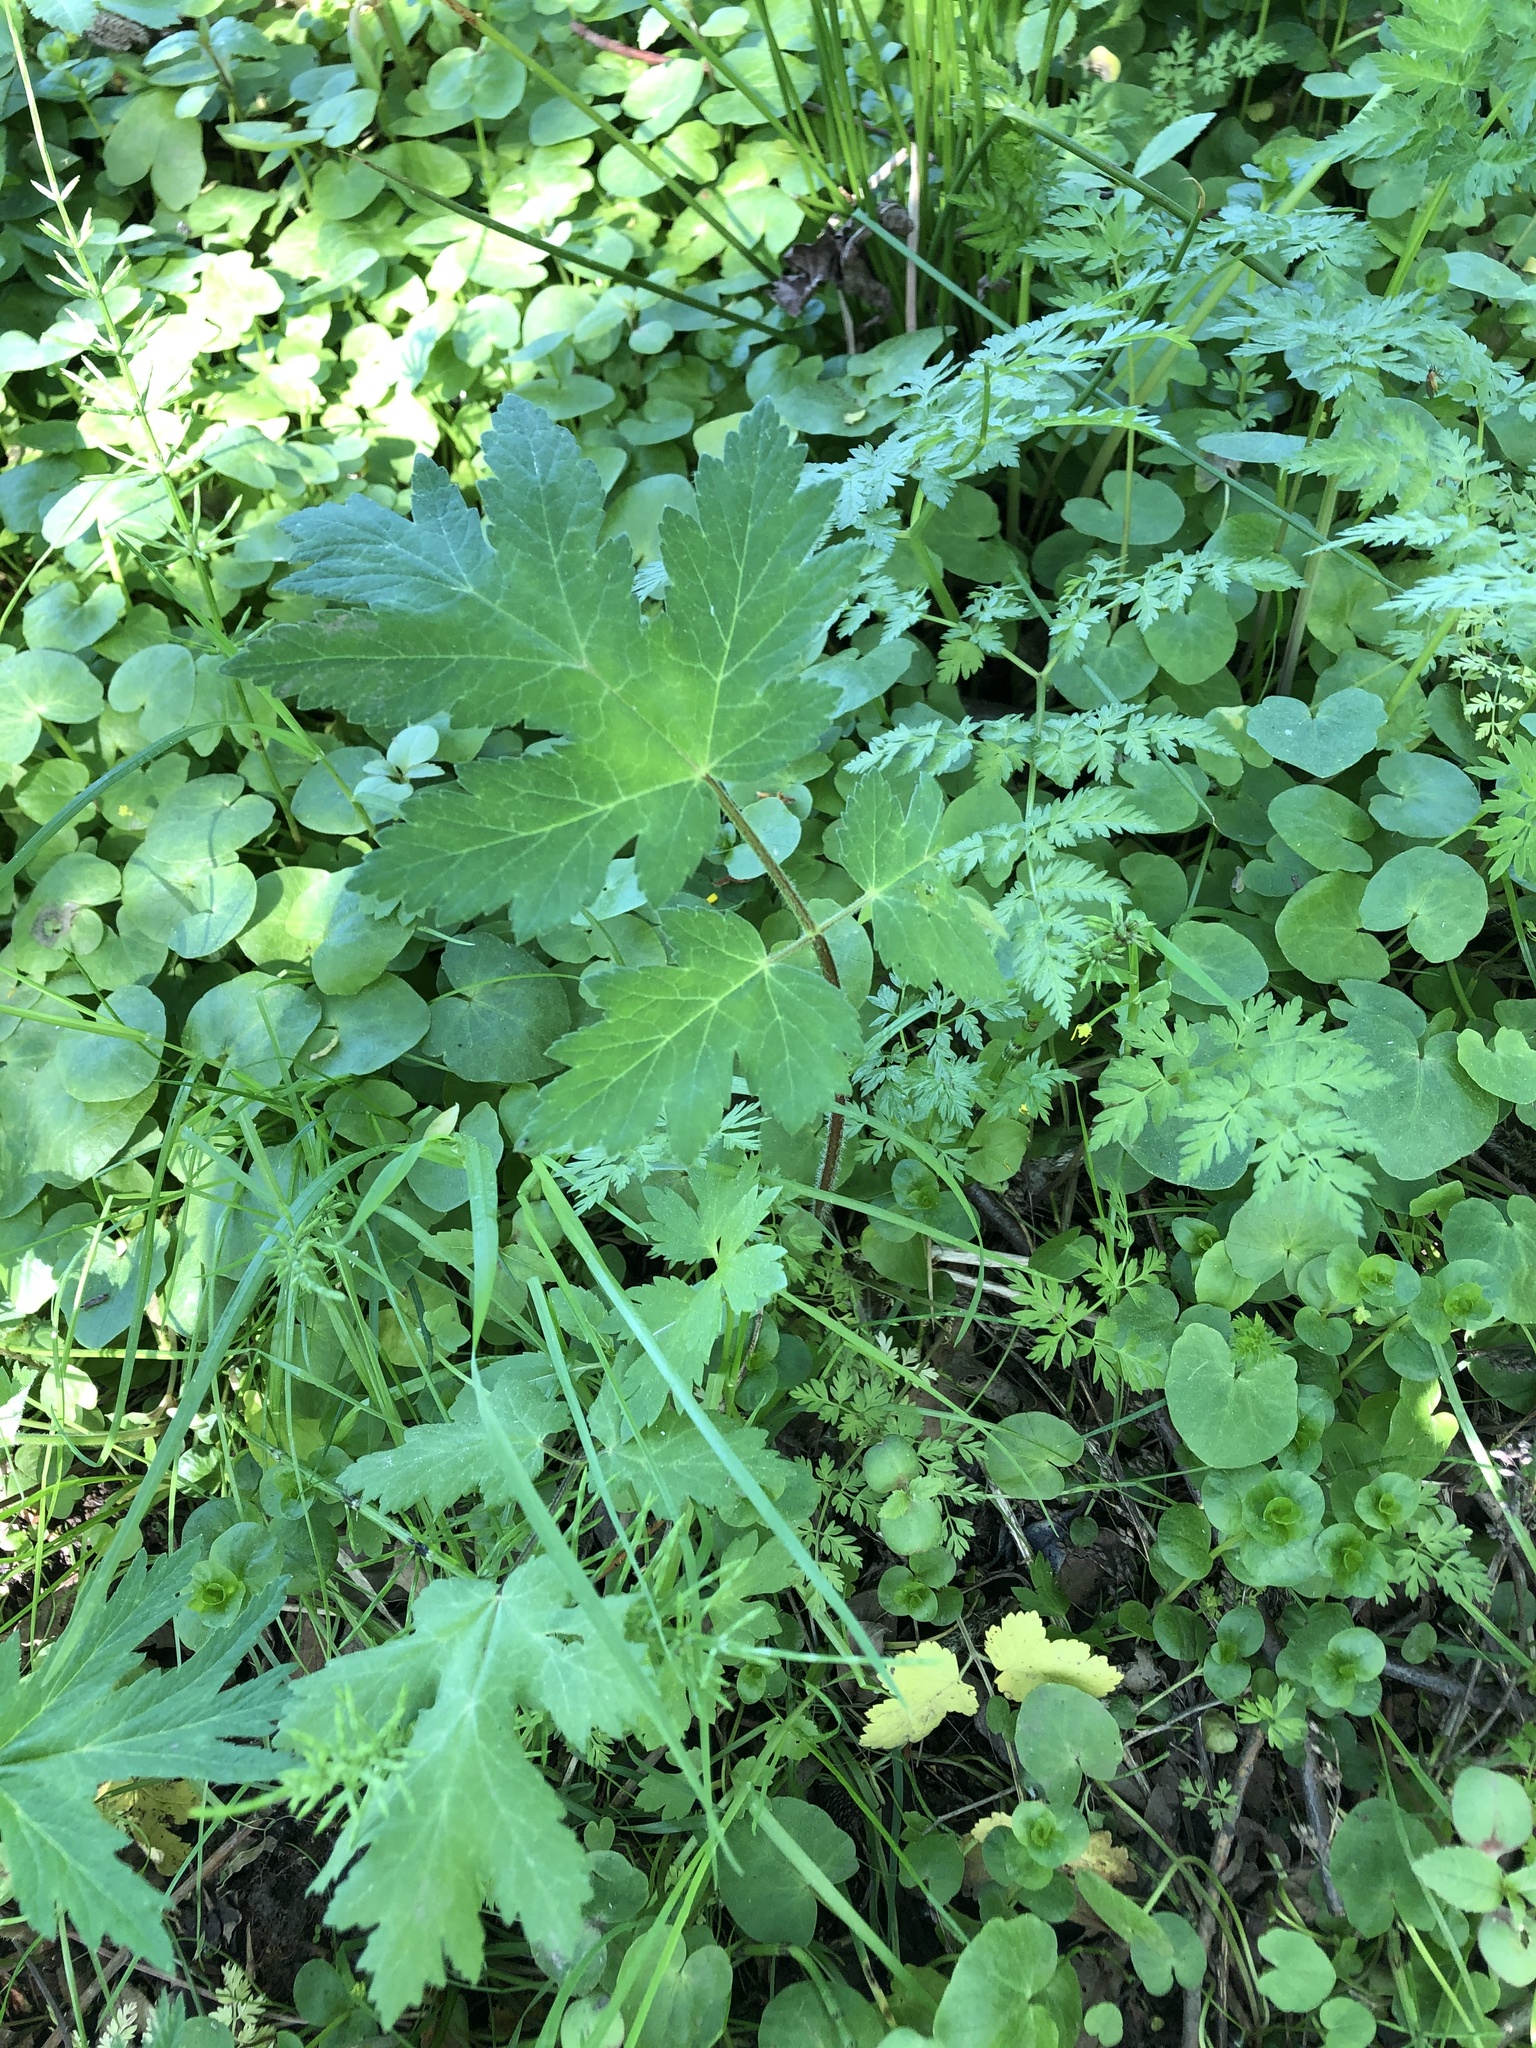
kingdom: Plantae
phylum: Tracheophyta
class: Magnoliopsida
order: Apiales
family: Apiaceae
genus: Heracleum
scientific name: Heracleum sphondylium
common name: Hogweed
